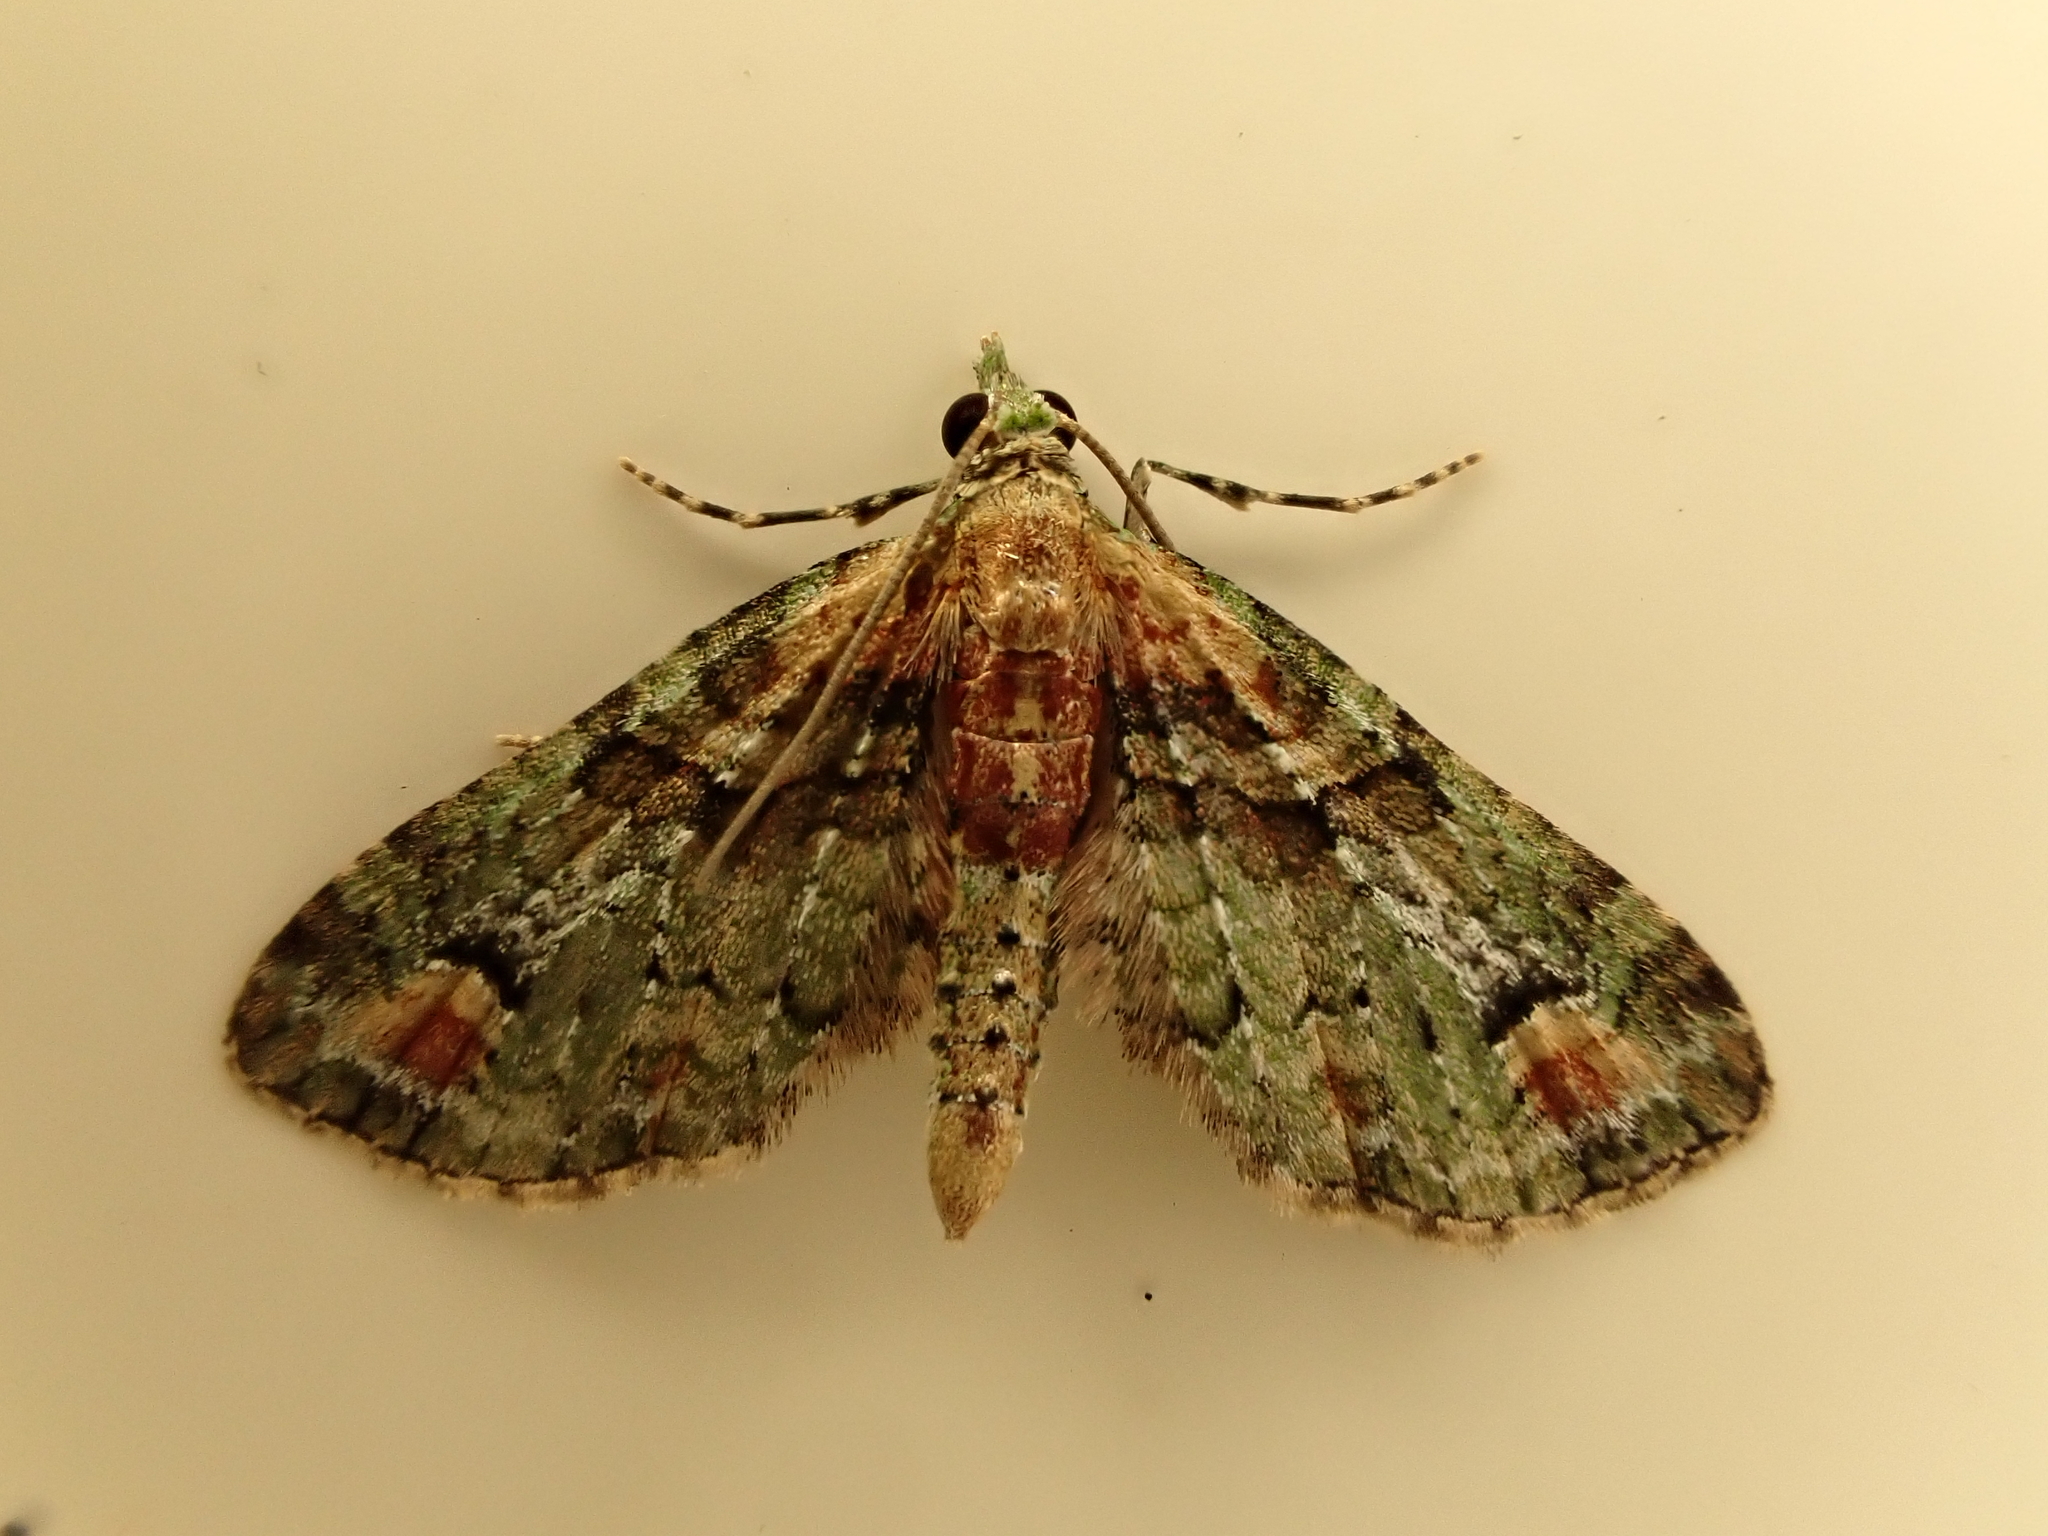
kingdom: Animalia
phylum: Arthropoda
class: Insecta
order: Lepidoptera
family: Geometridae
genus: Idaea
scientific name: Idaea mutanda
